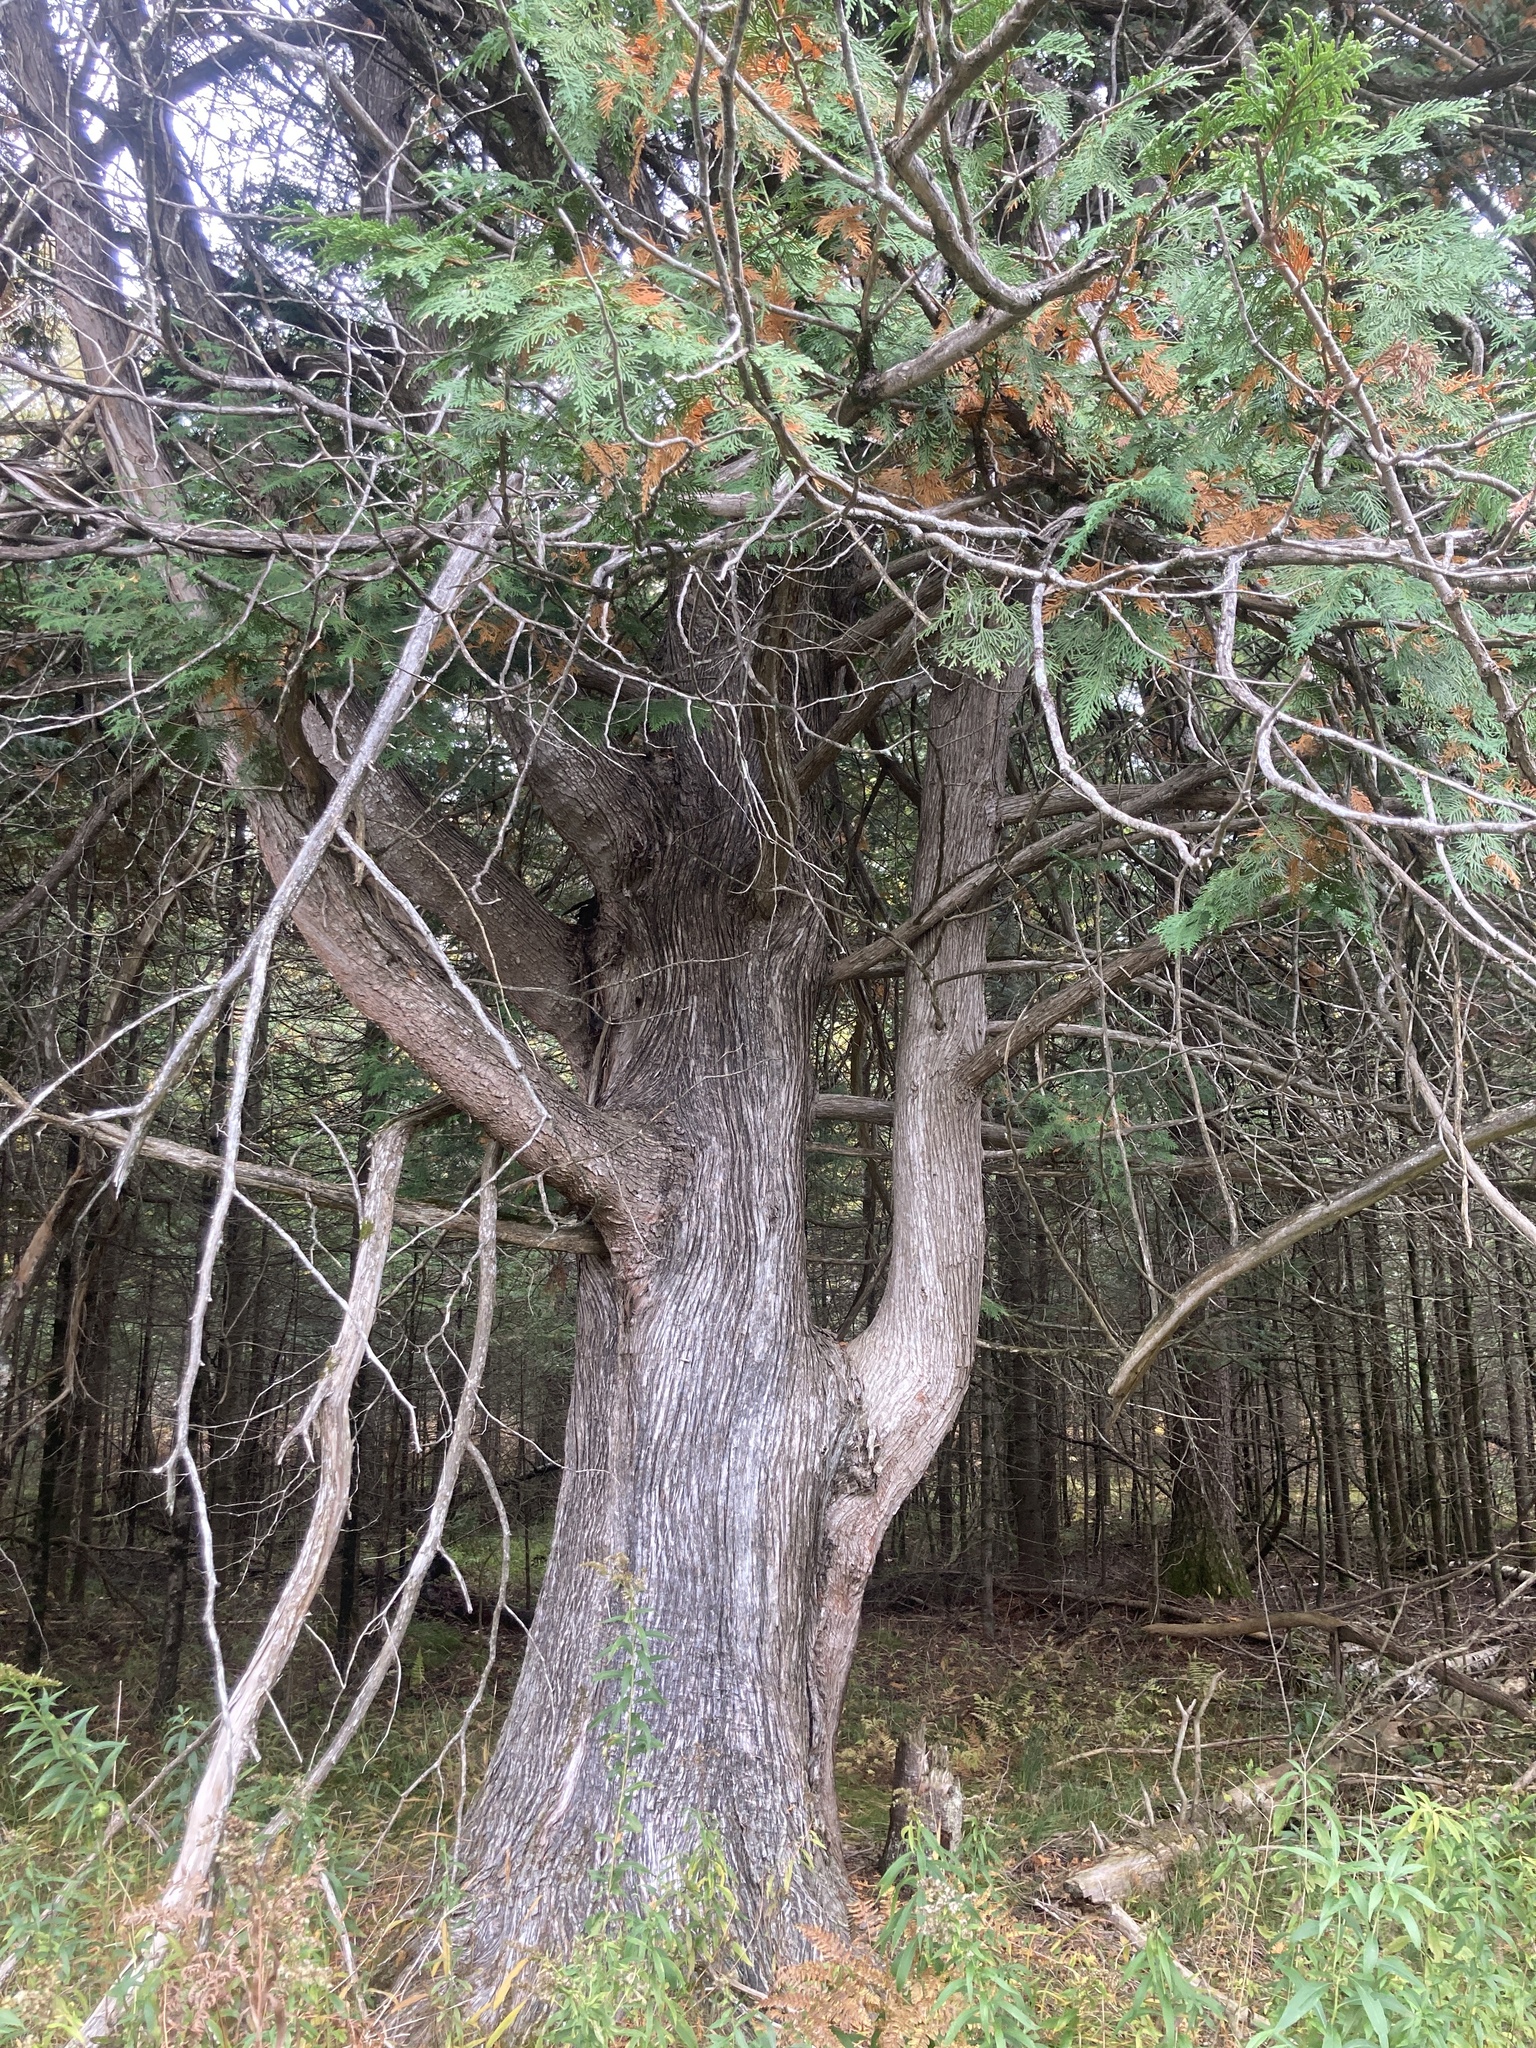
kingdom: Plantae
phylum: Tracheophyta
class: Pinopsida
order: Pinales
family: Cupressaceae
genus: Thuja
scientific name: Thuja occidentalis
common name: Northern white-cedar
